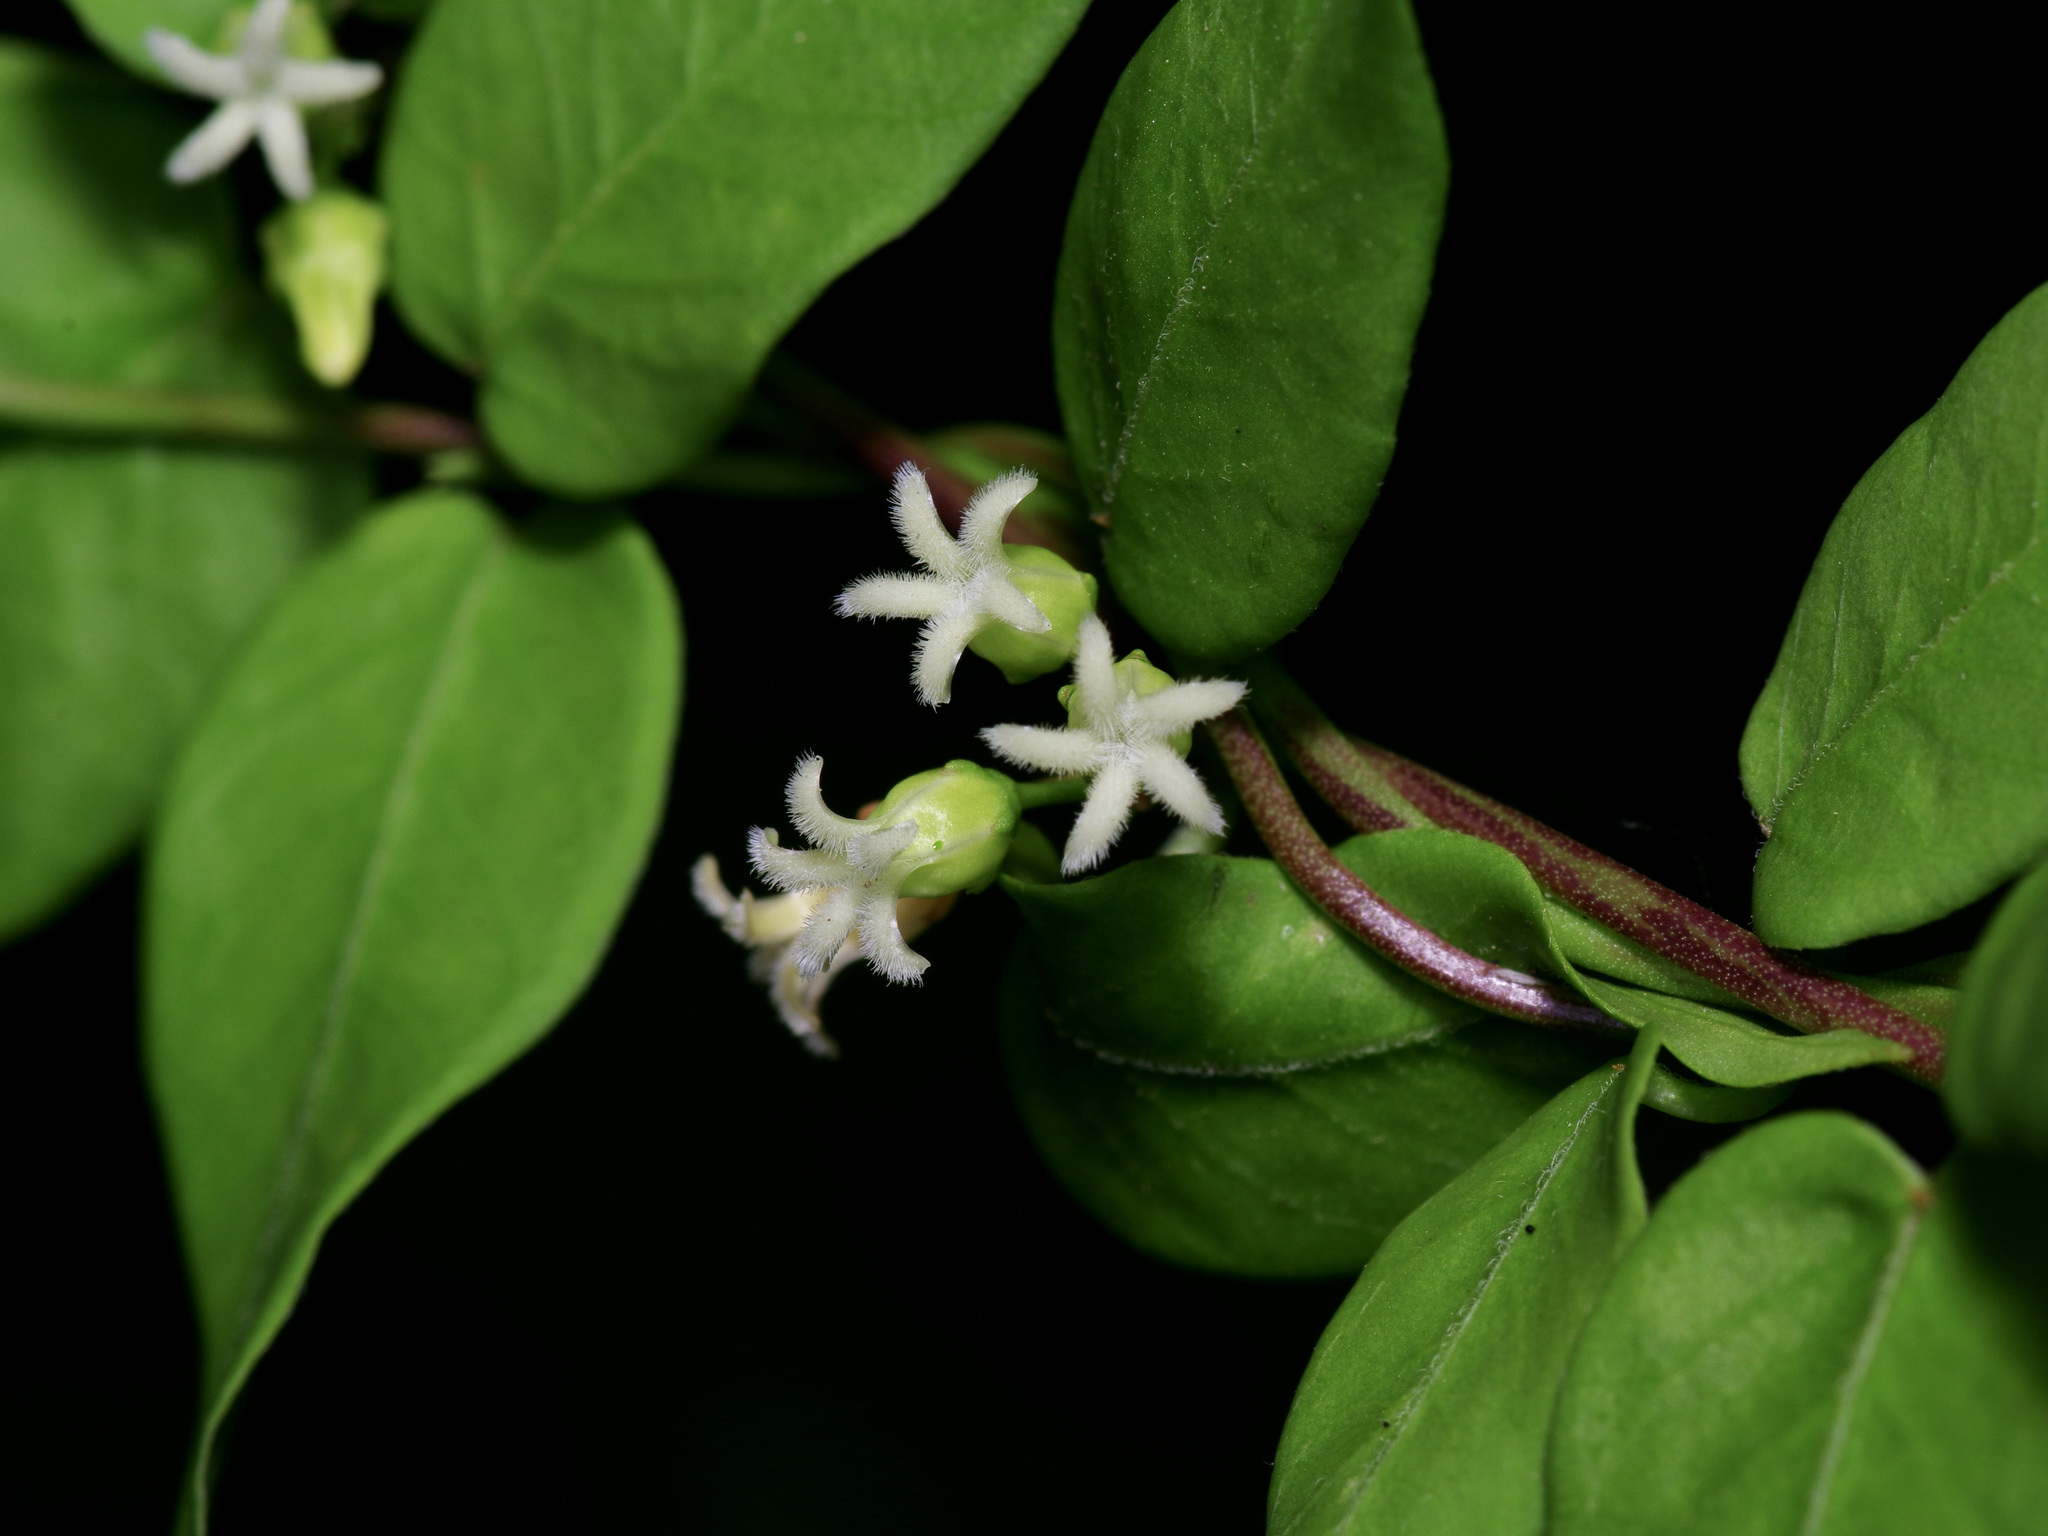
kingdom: Plantae
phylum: Tracheophyta
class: Magnoliopsida
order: Gentianales
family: Apocynaceae
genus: Metastelma
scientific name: Metastelma barbigerum
